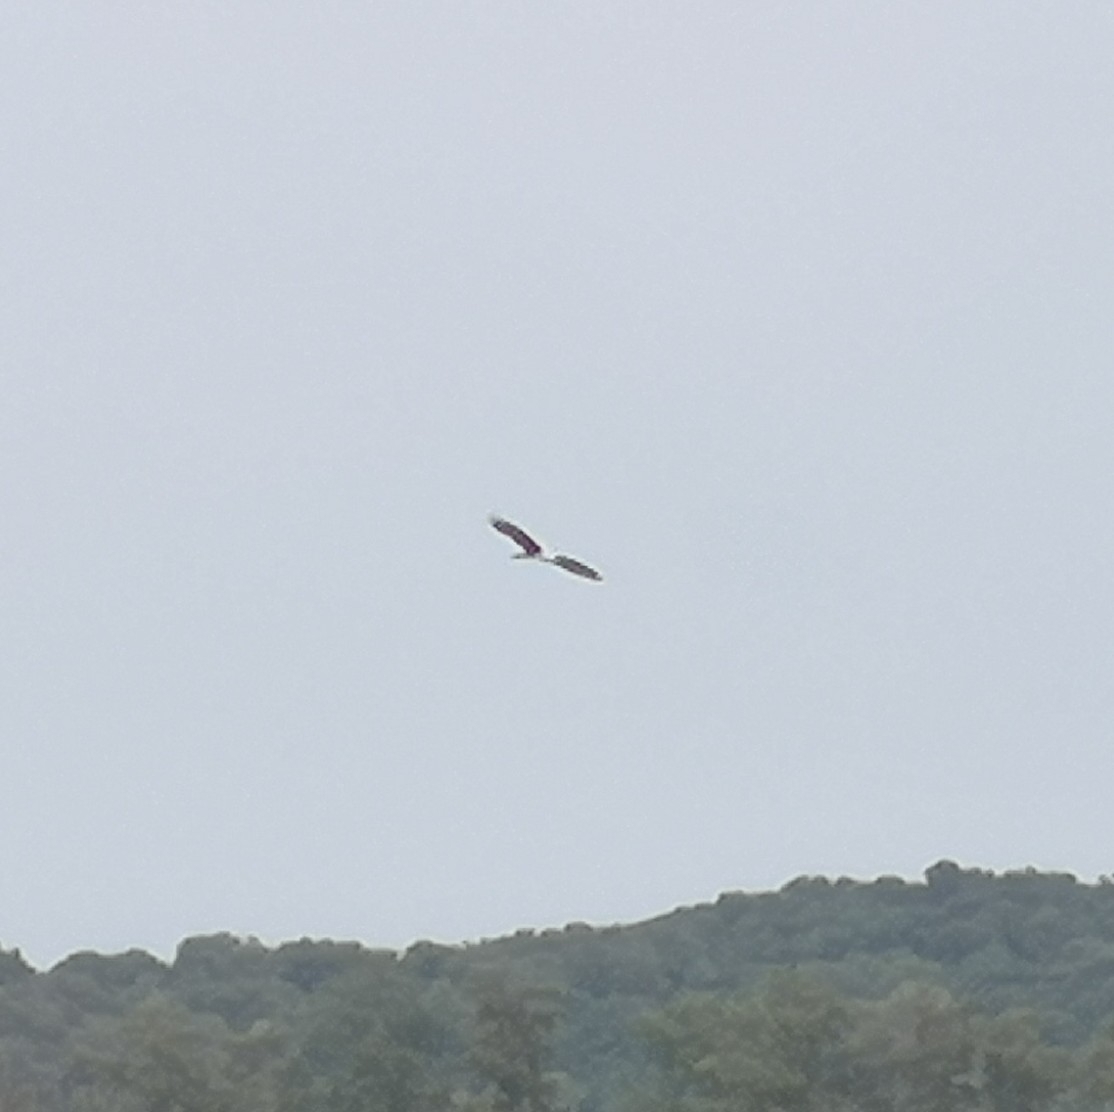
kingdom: Animalia
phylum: Chordata
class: Aves
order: Accipitriformes
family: Accipitridae
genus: Haliastur
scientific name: Haliastur indus
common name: Brahminy kite
